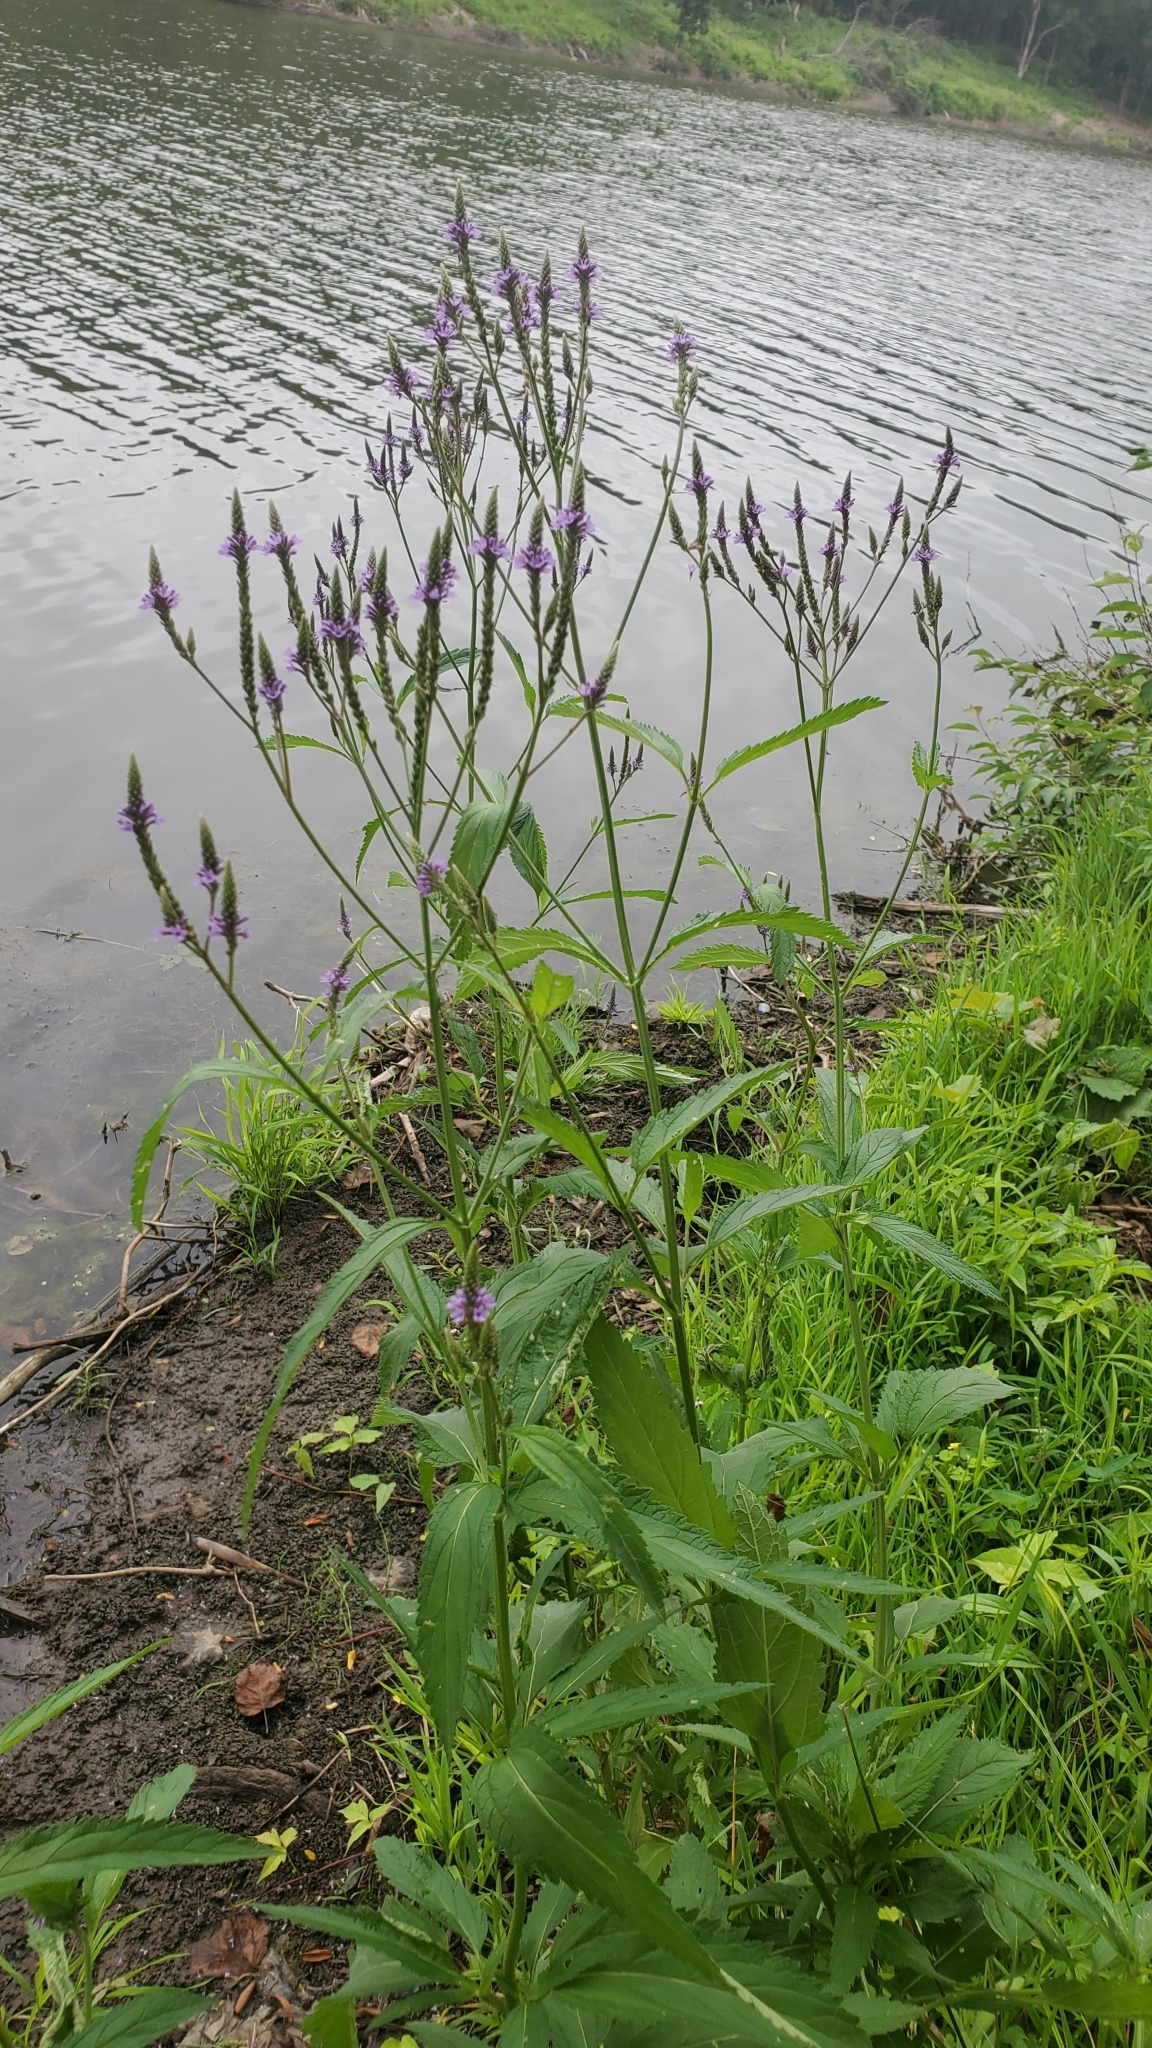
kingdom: Plantae
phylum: Tracheophyta
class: Magnoliopsida
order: Lamiales
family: Verbenaceae
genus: Verbena
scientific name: Verbena hastata
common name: American blue vervain
